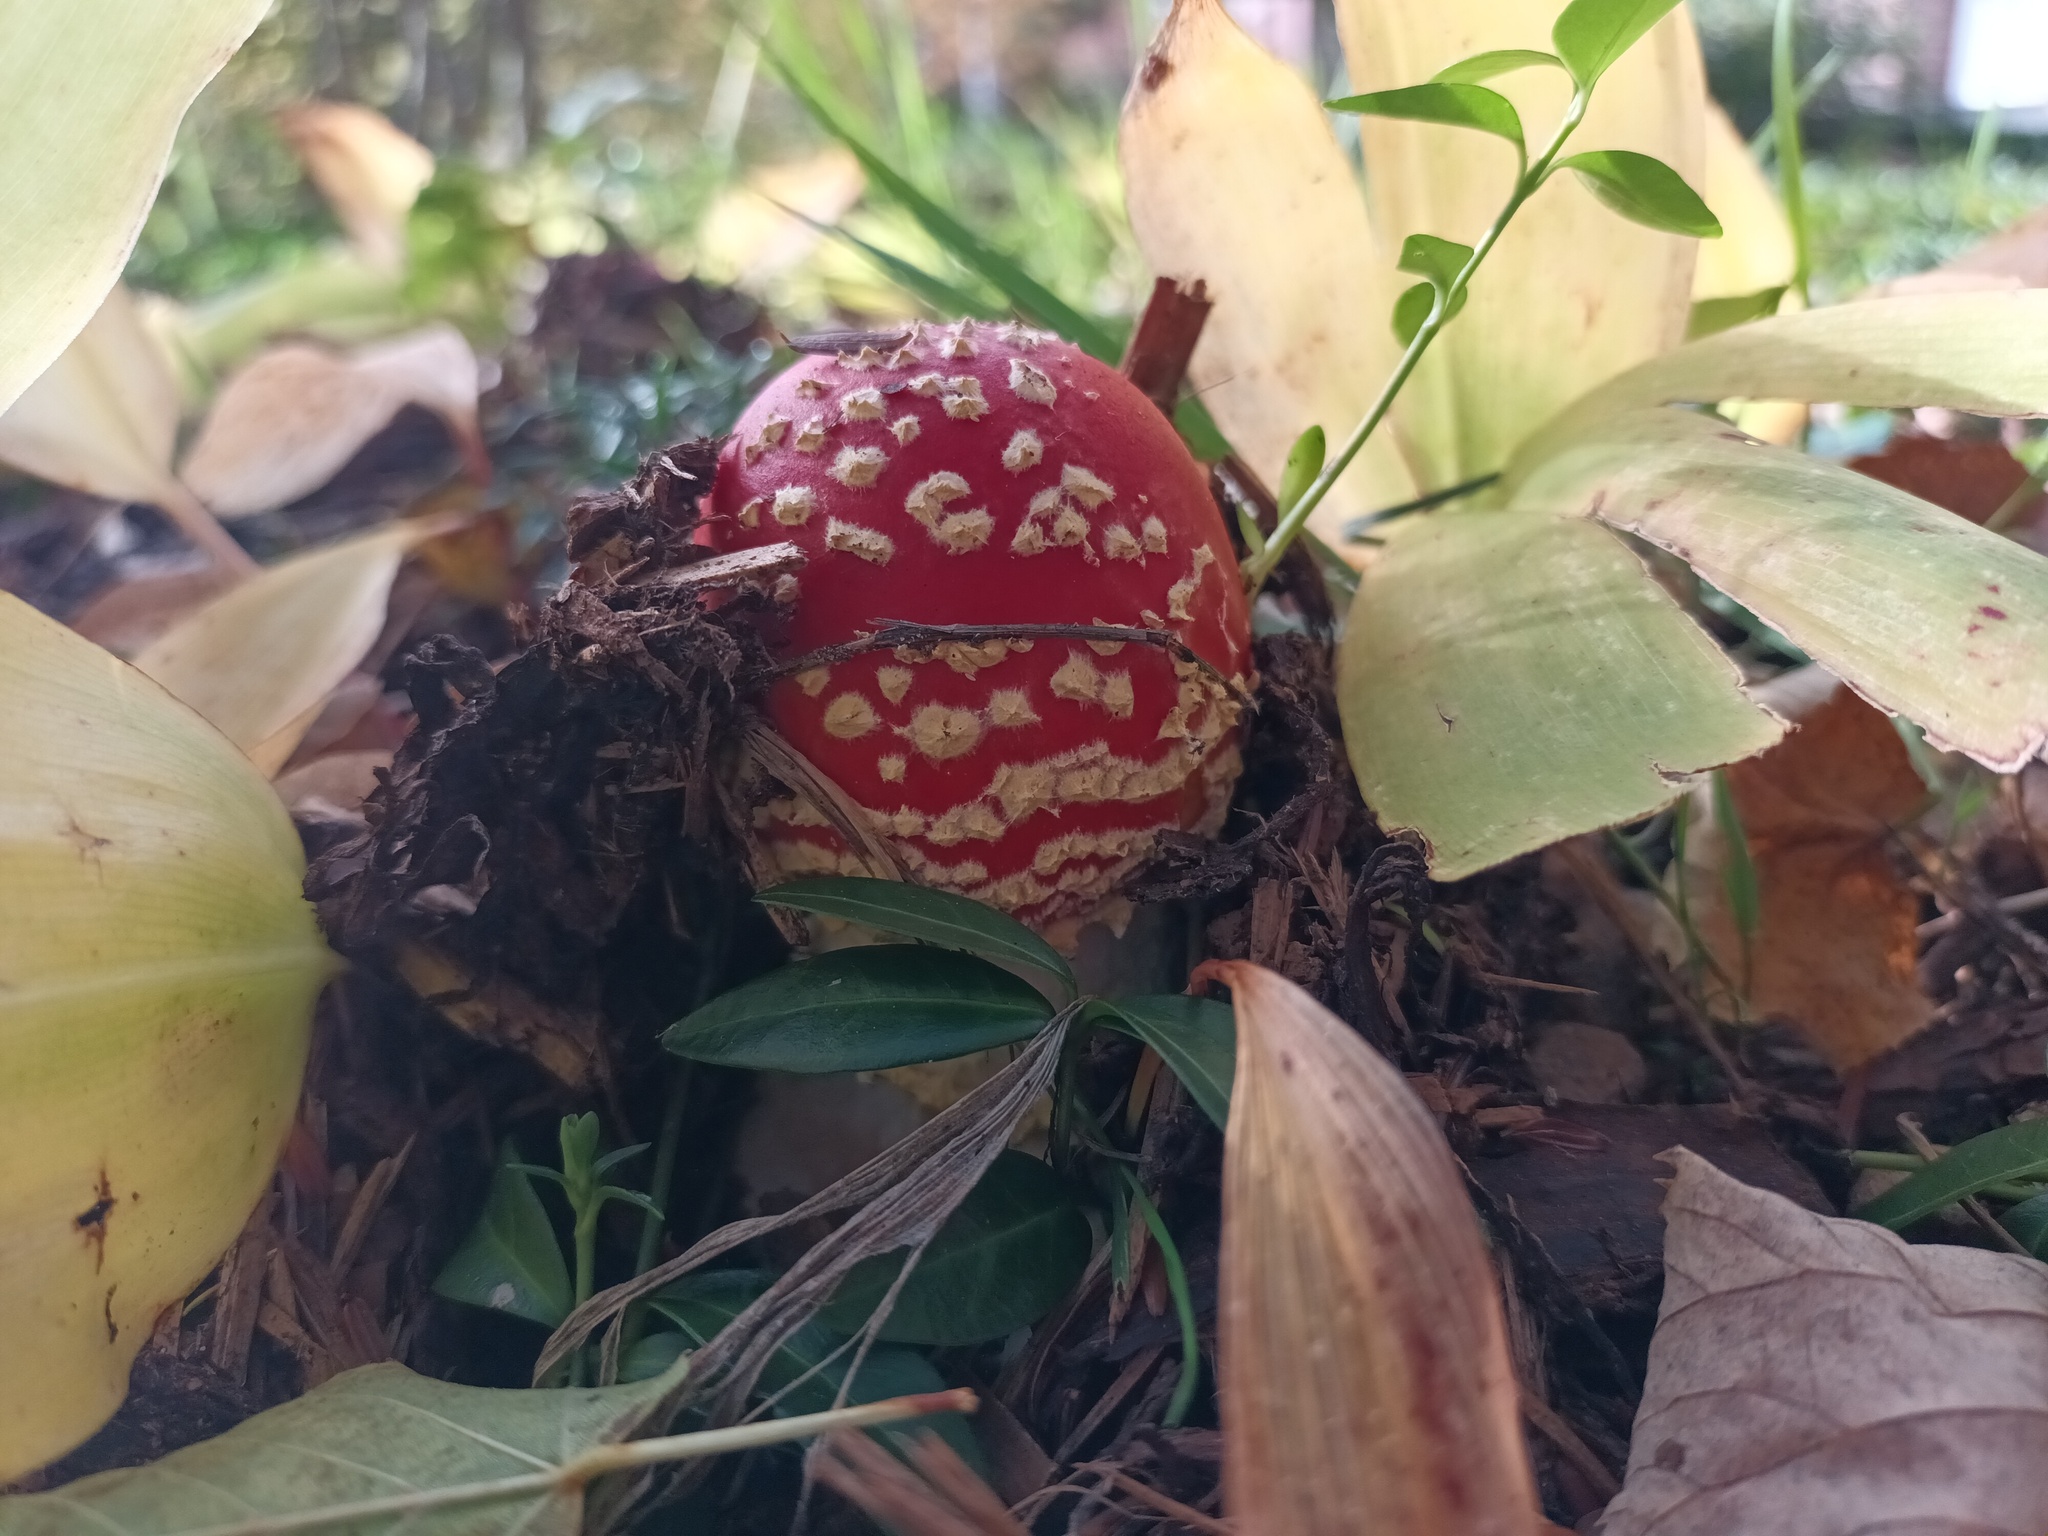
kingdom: Fungi
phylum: Basidiomycota
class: Agaricomycetes
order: Agaricales
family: Amanitaceae
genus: Amanita
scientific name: Amanita muscaria
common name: Fly agaric
